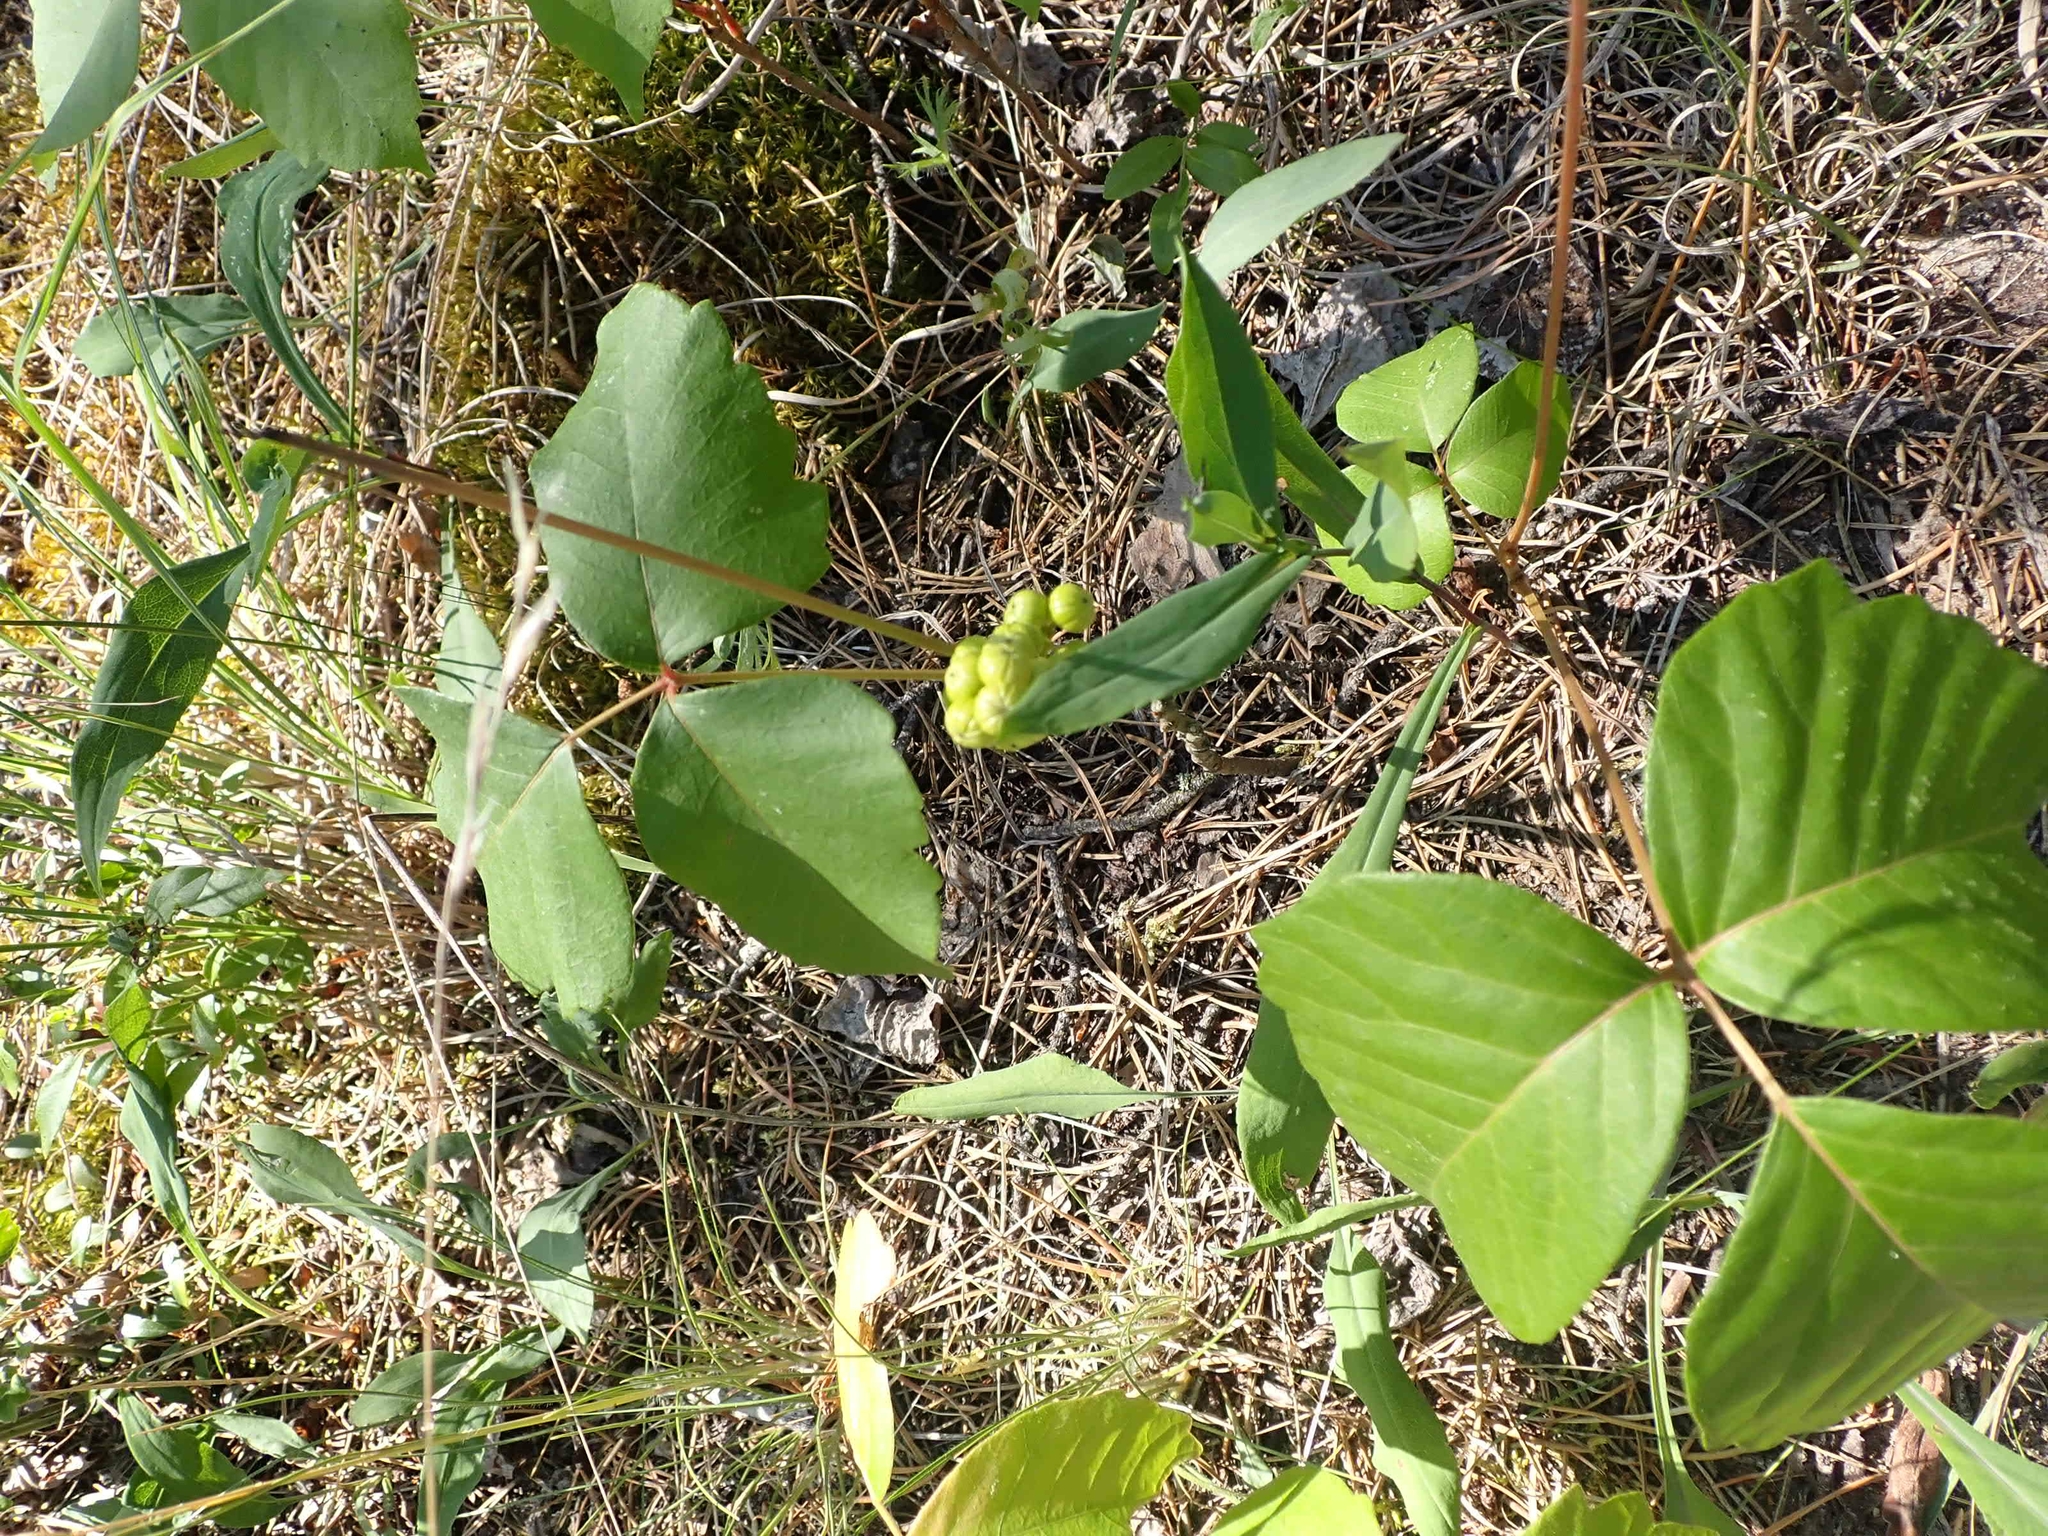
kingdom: Plantae
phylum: Tracheophyta
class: Magnoliopsida
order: Sapindales
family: Anacardiaceae
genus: Toxicodendron
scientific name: Toxicodendron rydbergii
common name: Rydberg's poison-ivy
